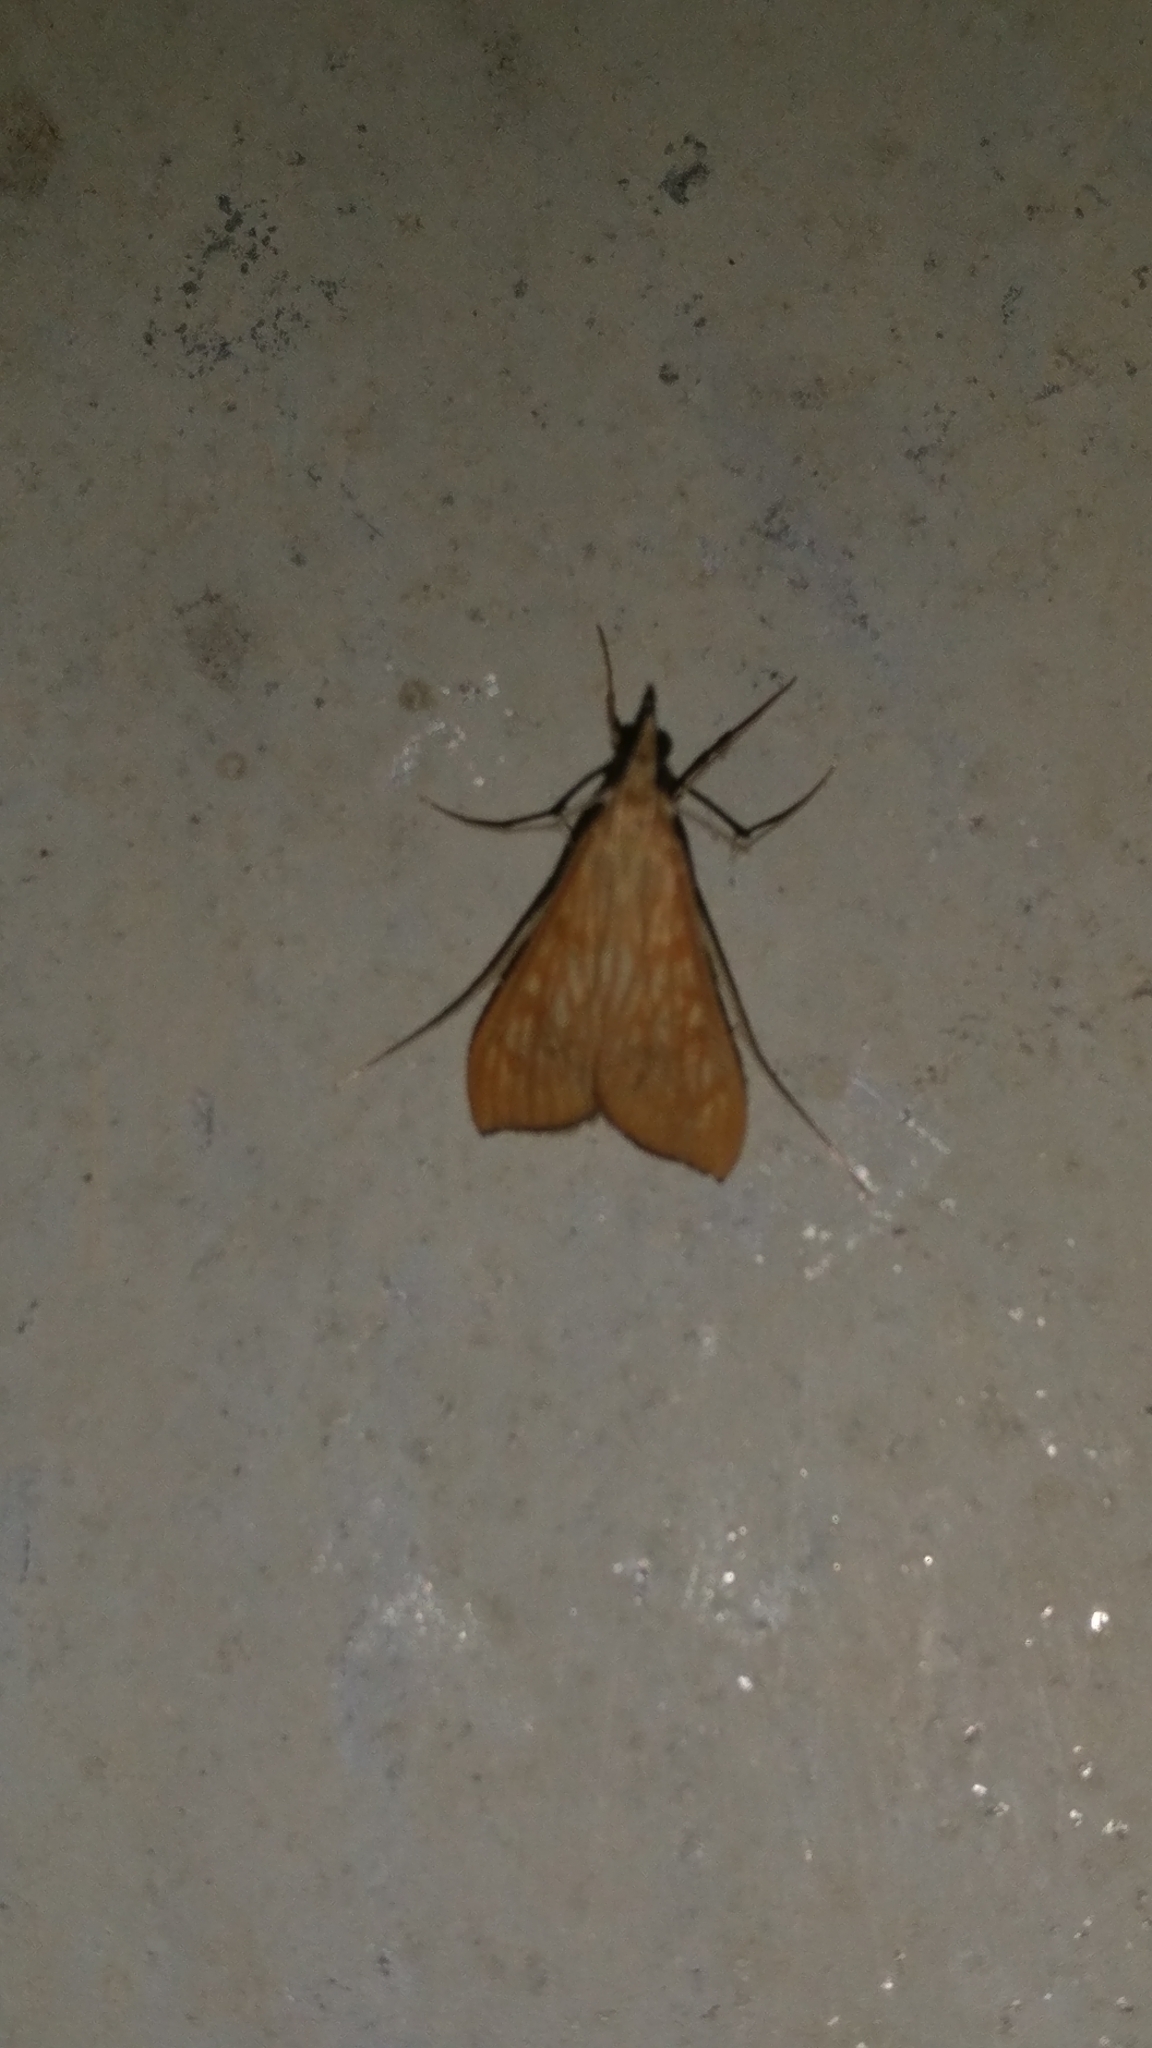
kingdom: Animalia
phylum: Arthropoda
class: Insecta
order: Lepidoptera
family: Crambidae
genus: Antigastra
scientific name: Antigastra catalaunalis
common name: Spanish dot
